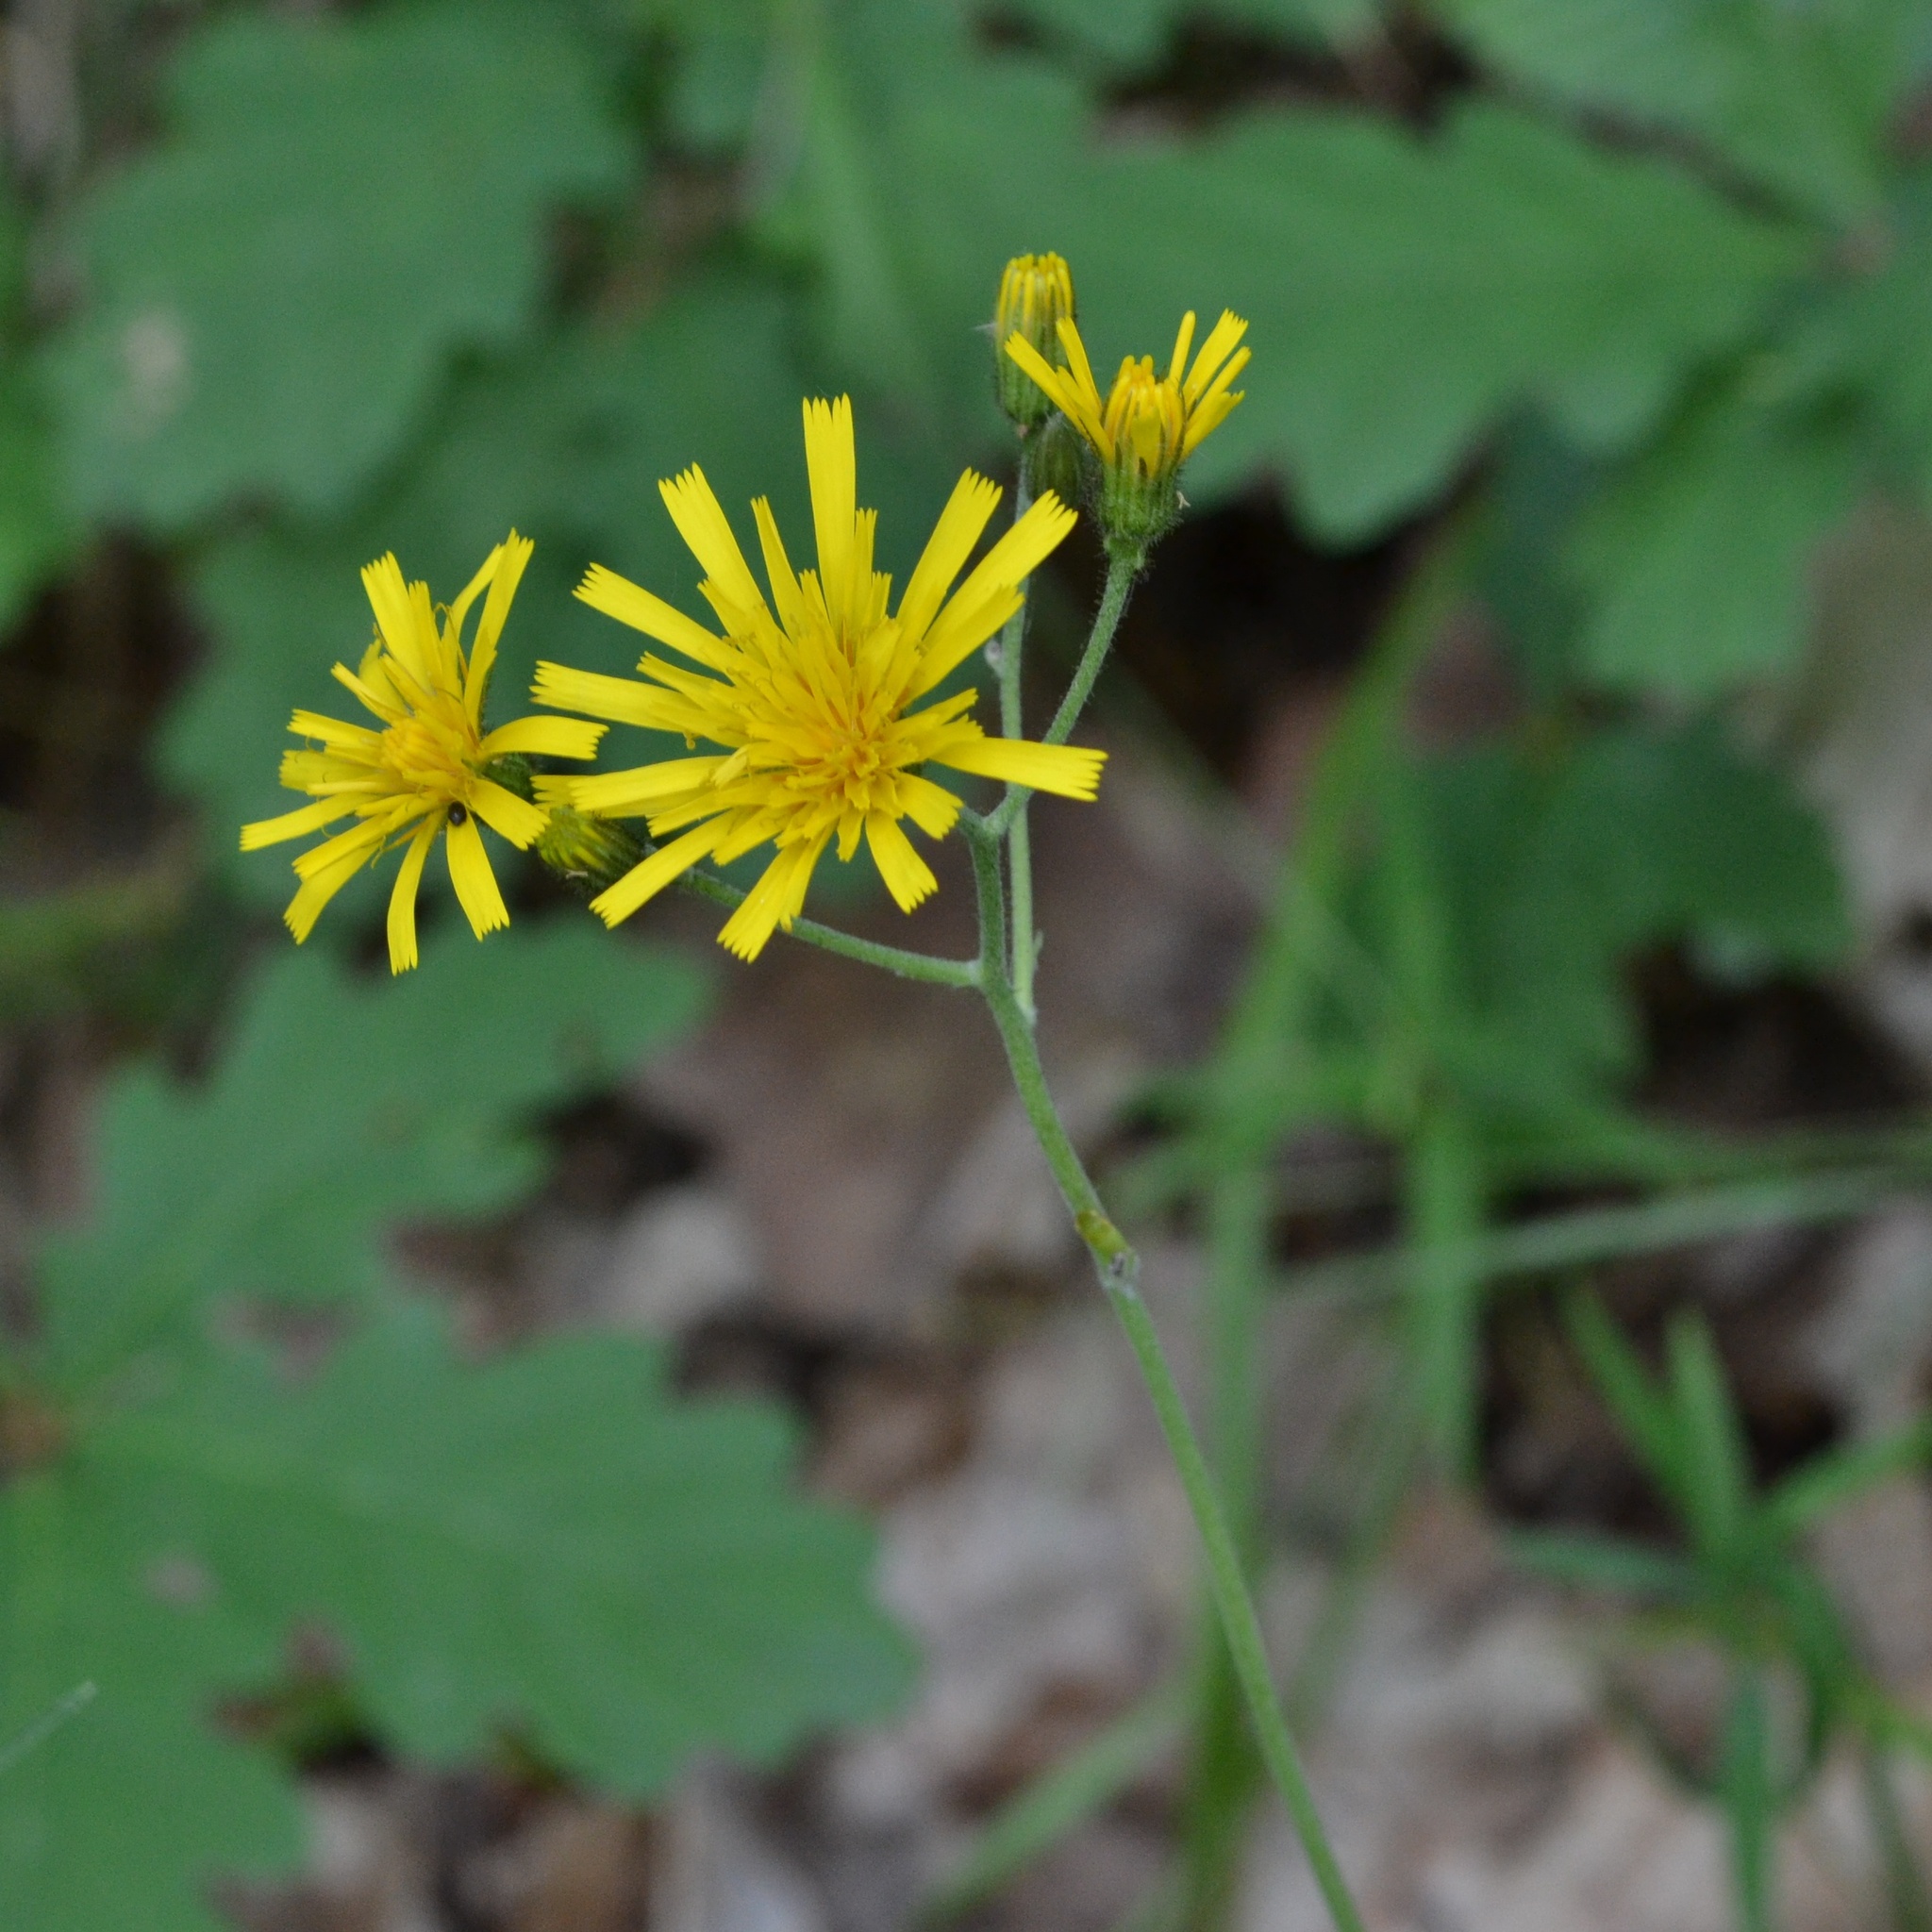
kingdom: Plantae
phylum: Tracheophyta
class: Magnoliopsida
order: Asterales
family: Asteraceae
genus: Hieracium
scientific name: Hieracium murorum
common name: Wall hawkweed
